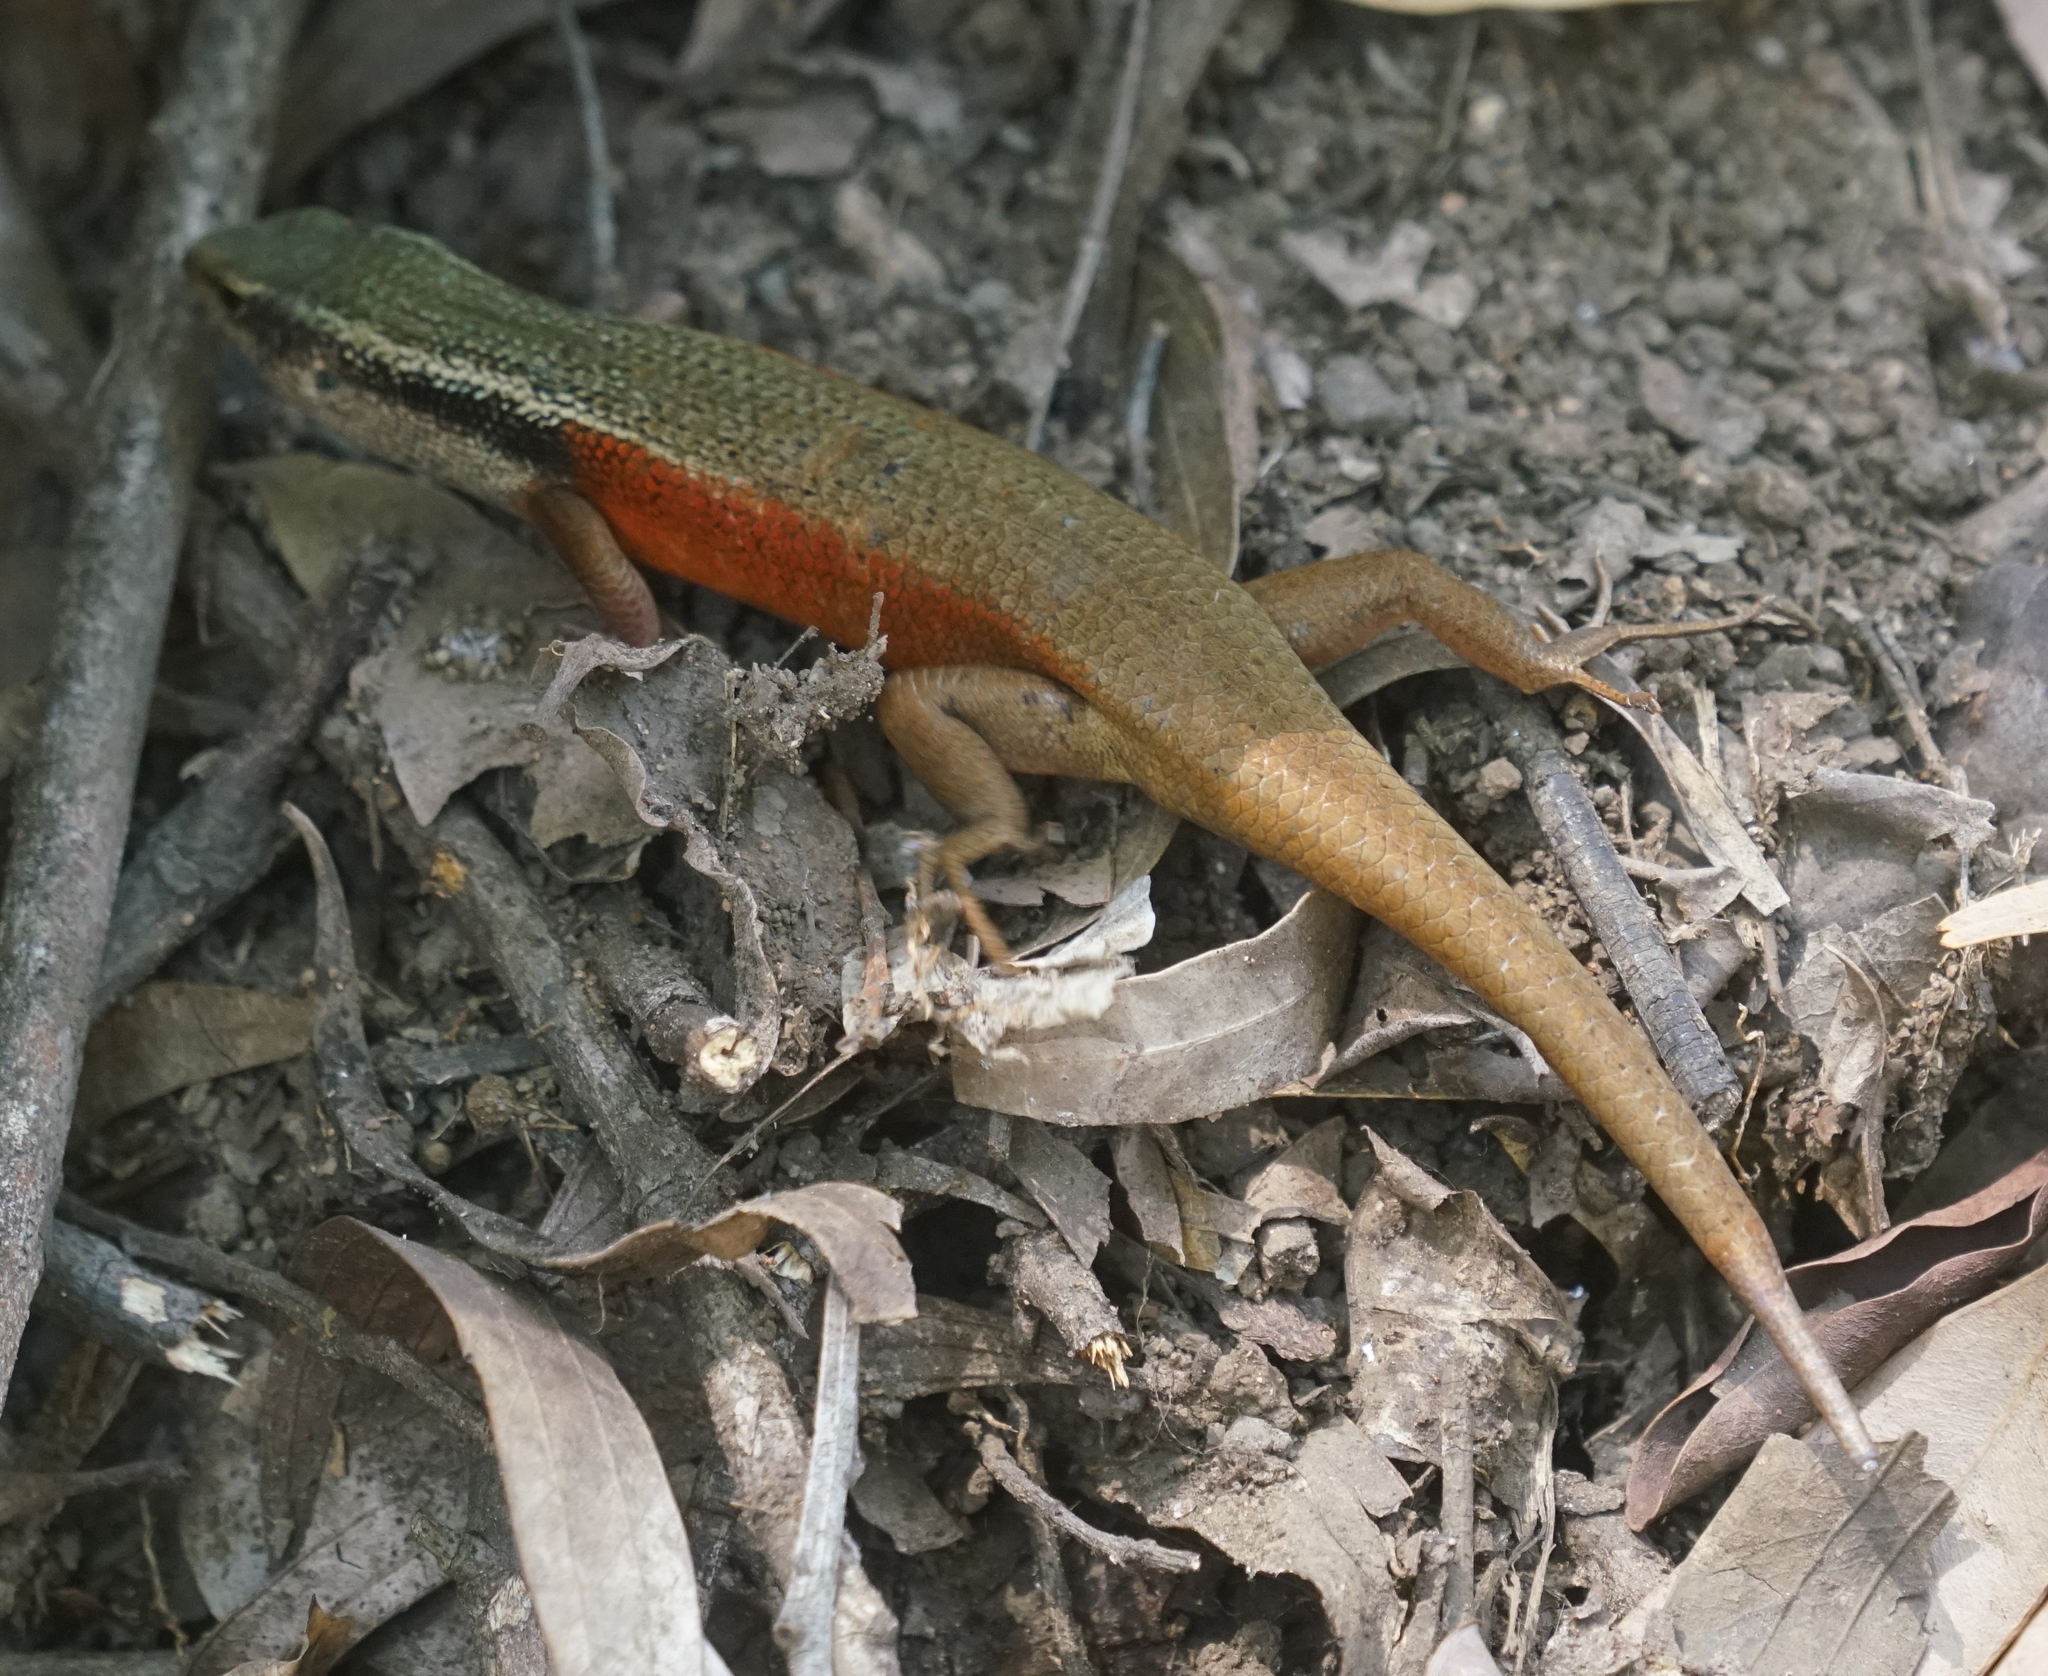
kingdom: Animalia
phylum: Chordata
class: Squamata
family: Scincidae
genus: Carlia
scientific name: Carlia longipes
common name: Closed-litter rainbow-skink
